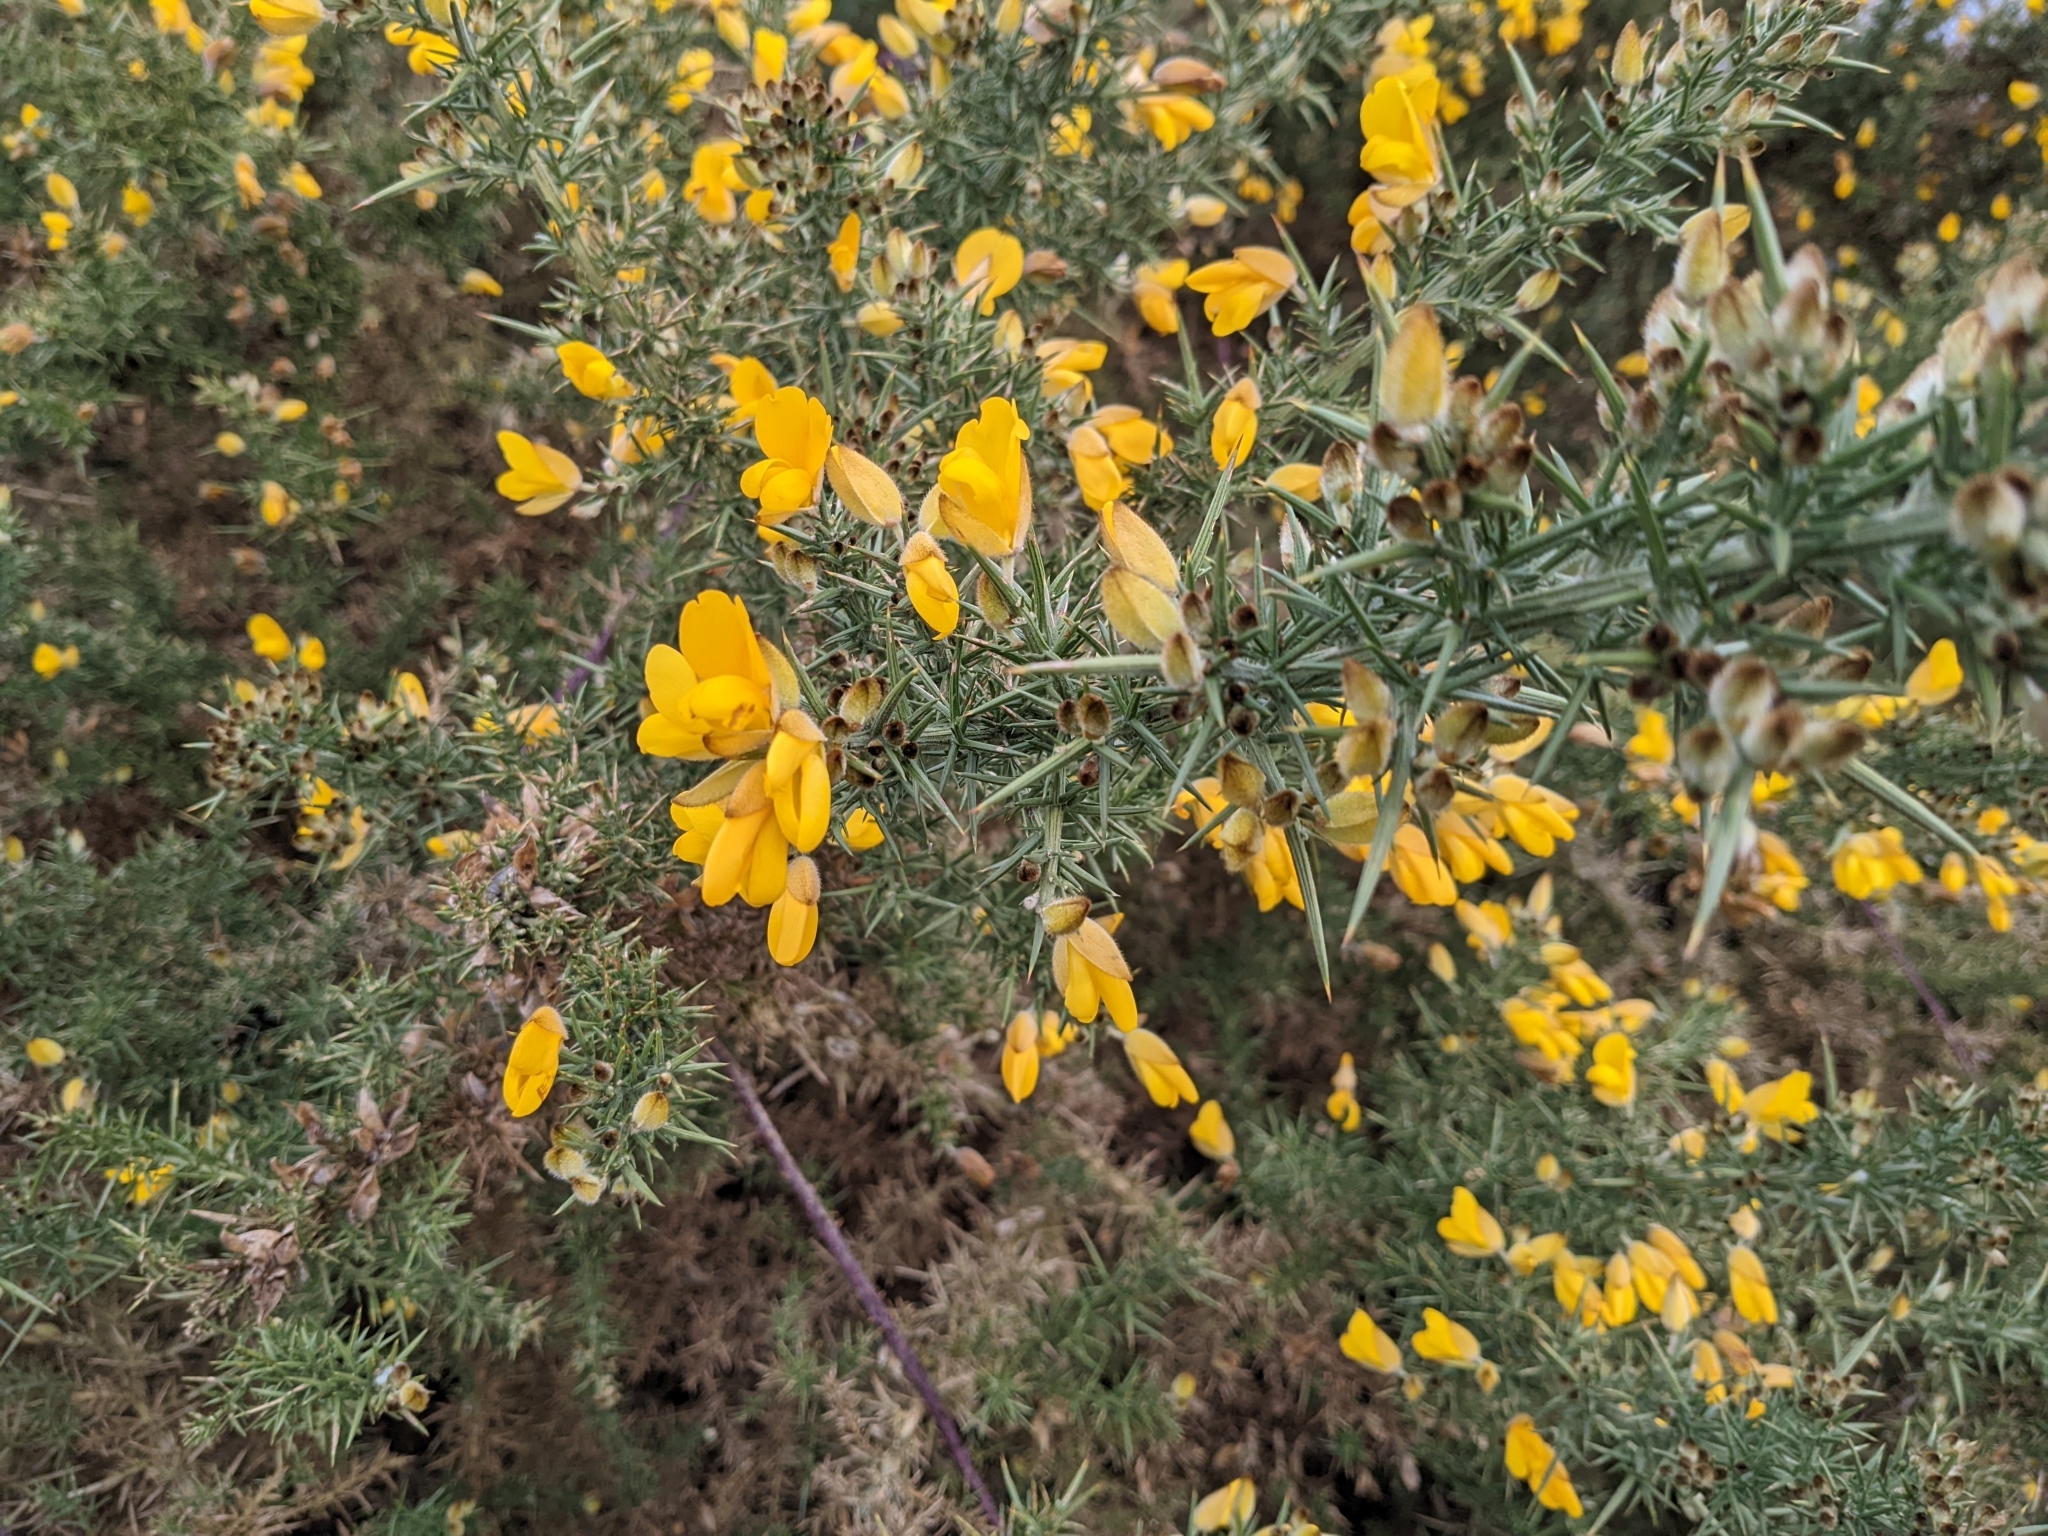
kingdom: Plantae
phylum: Tracheophyta
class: Magnoliopsida
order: Fabales
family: Fabaceae
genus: Ulex
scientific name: Ulex europaeus
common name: Common gorse
